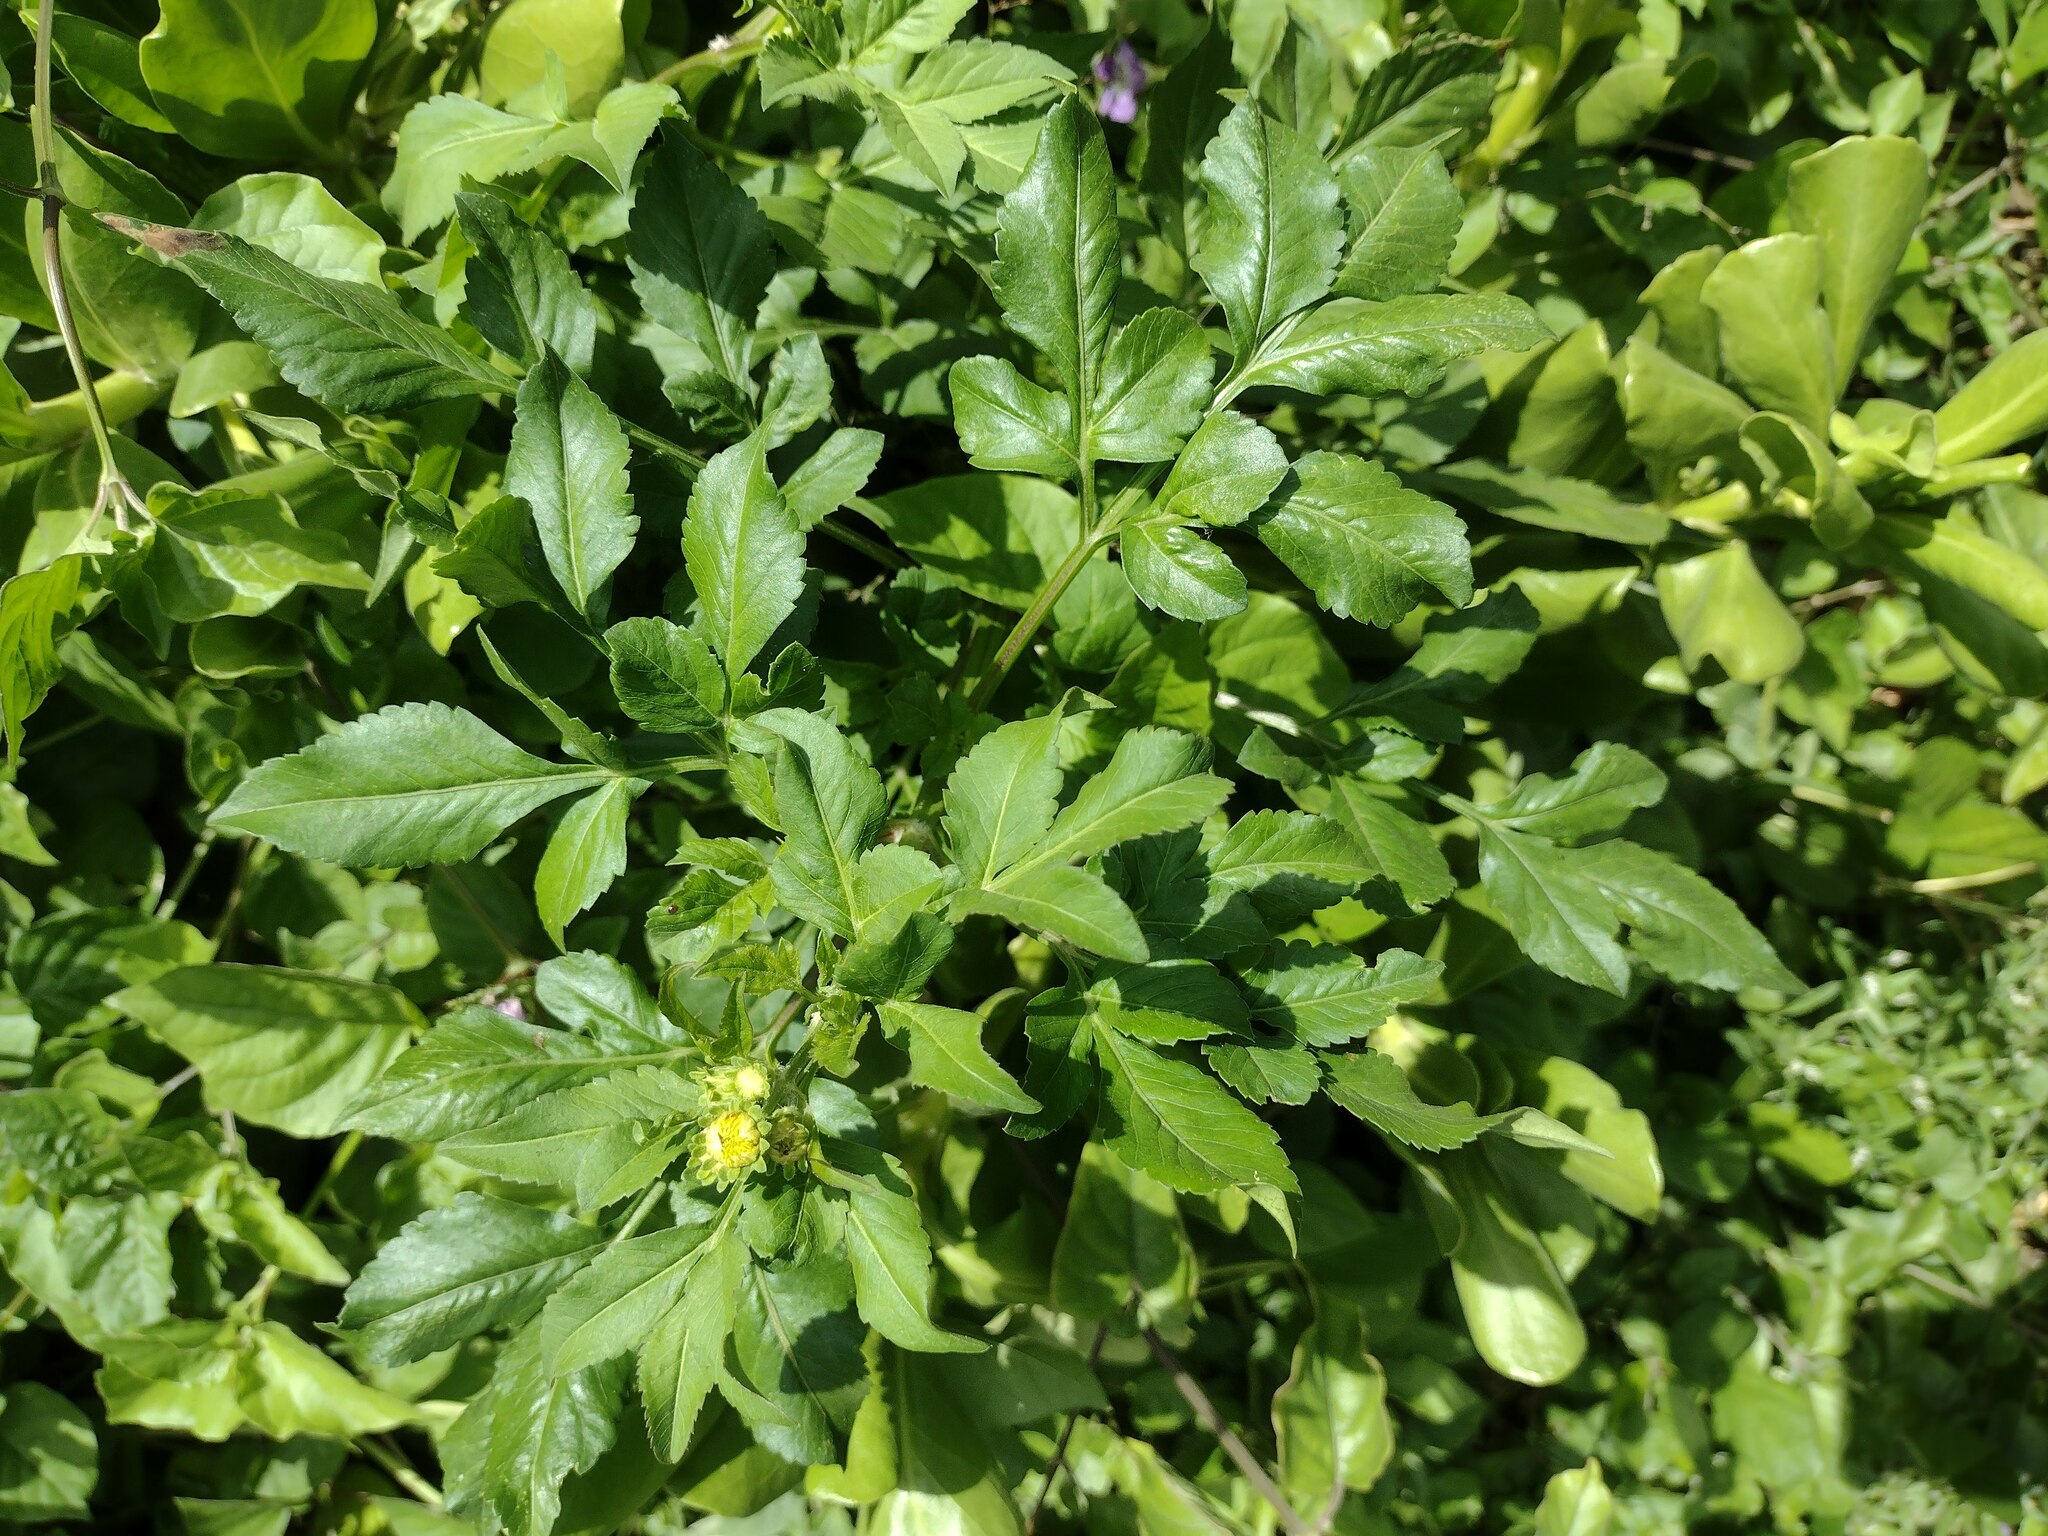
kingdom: Plantae
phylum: Tracheophyta
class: Magnoliopsida
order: Asterales
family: Asteraceae
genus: Bidens
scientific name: Bidens alba
